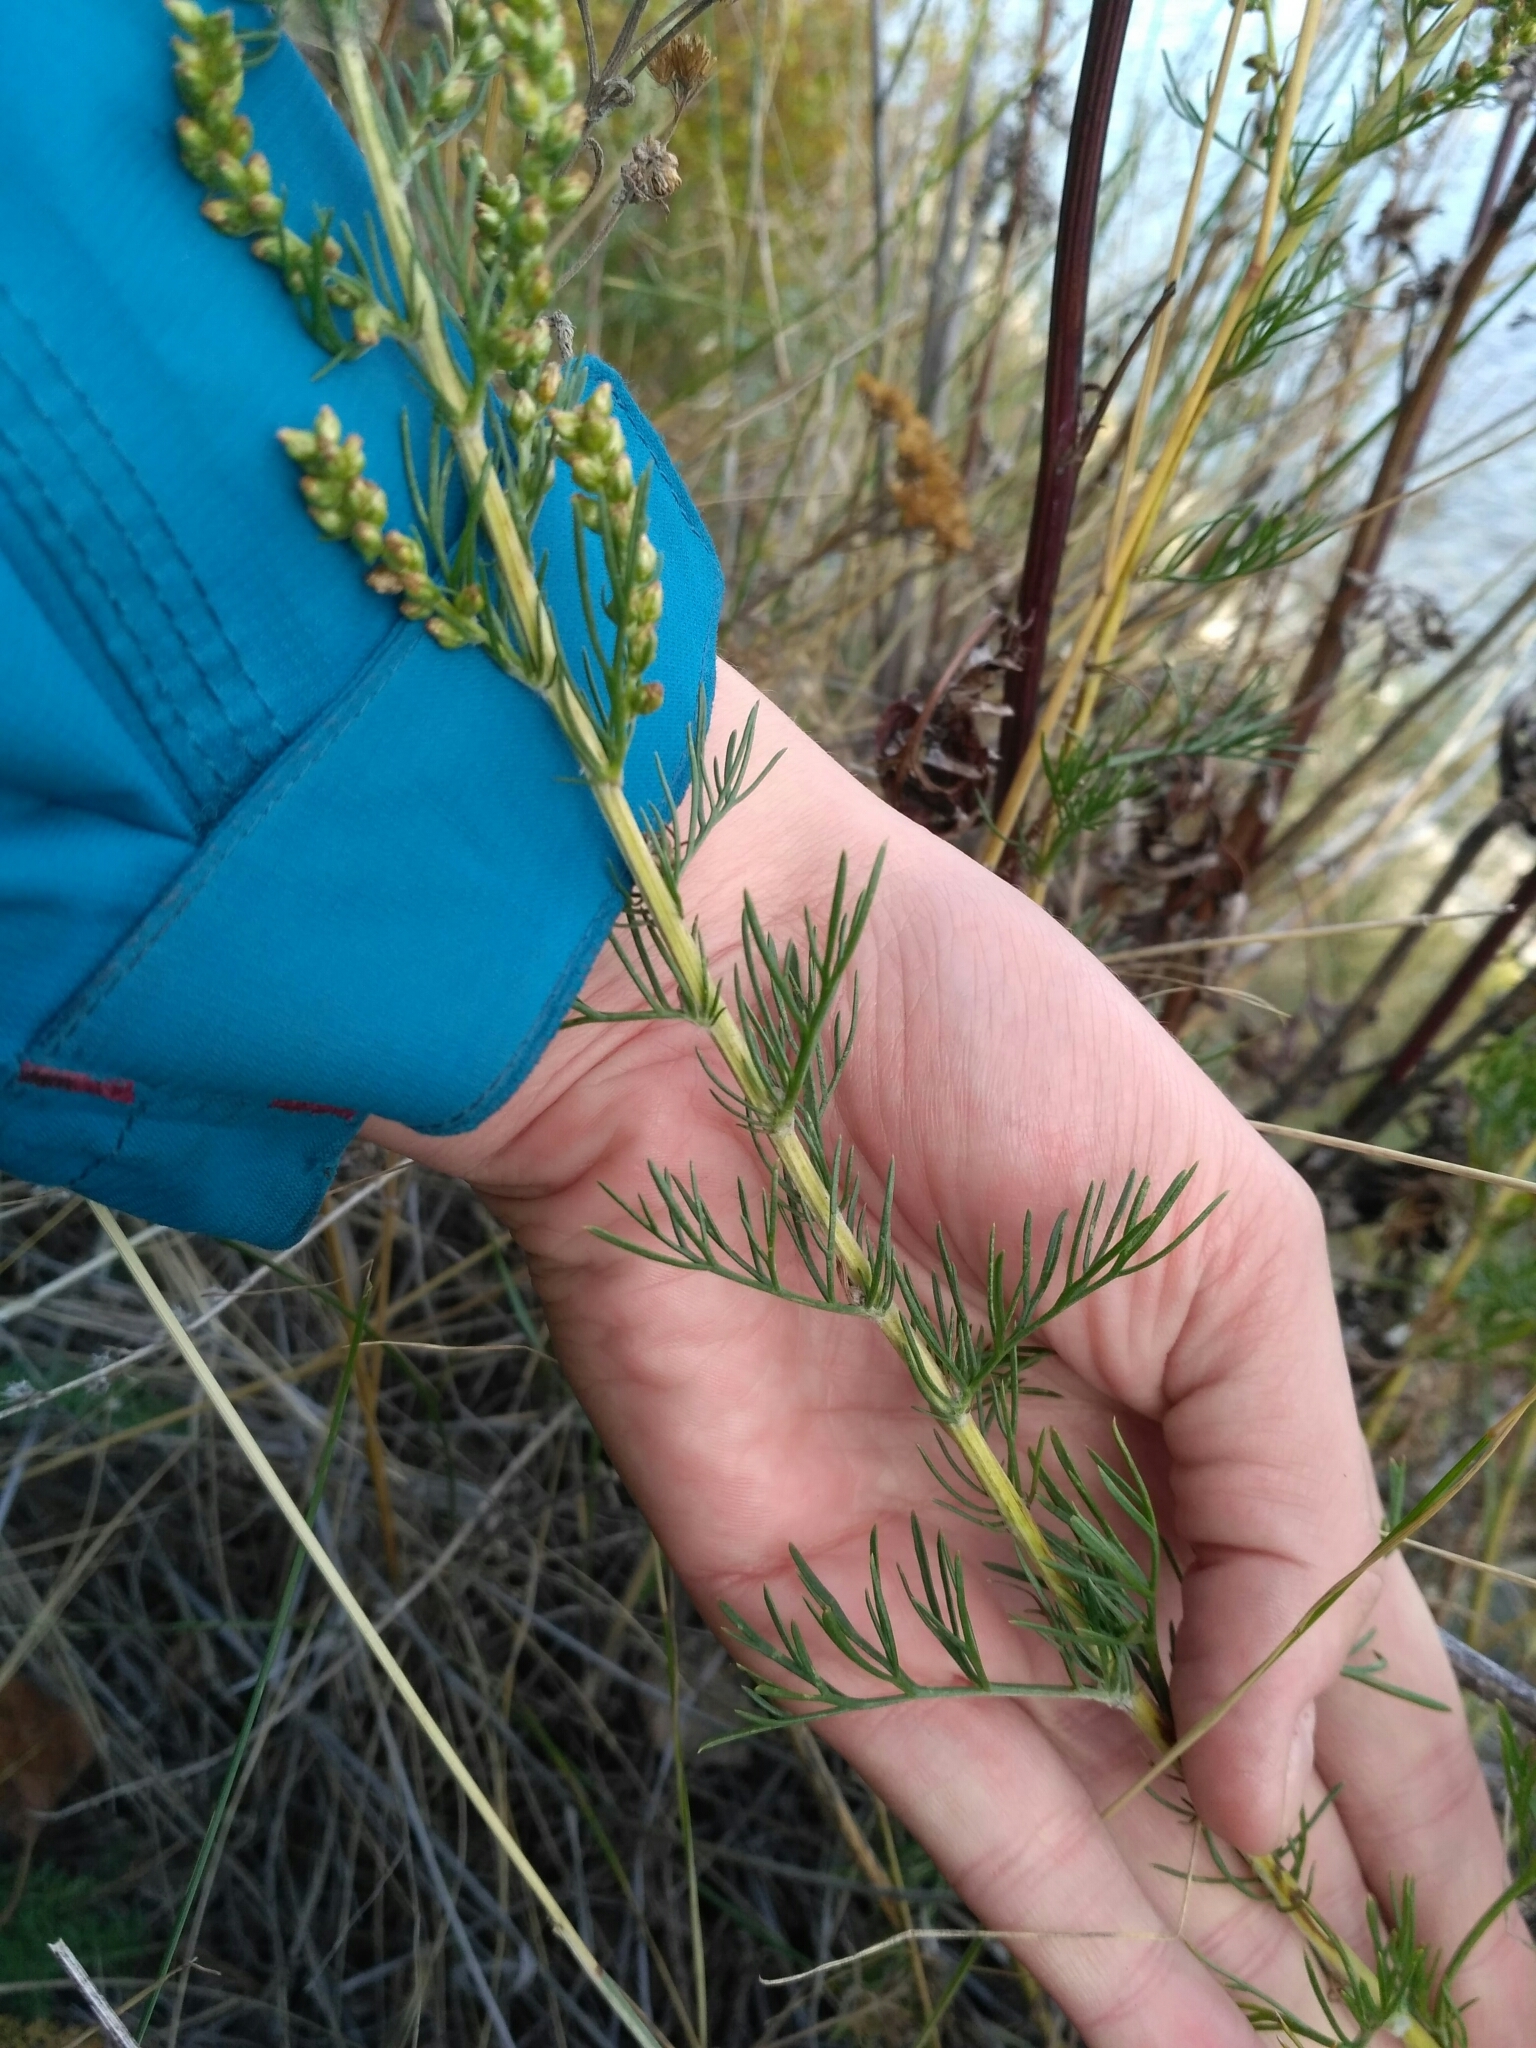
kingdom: Plantae
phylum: Tracheophyta
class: Magnoliopsida
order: Gentianales
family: Rubiaceae
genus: Galium
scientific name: Galium verum
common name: Lady's bedstraw
